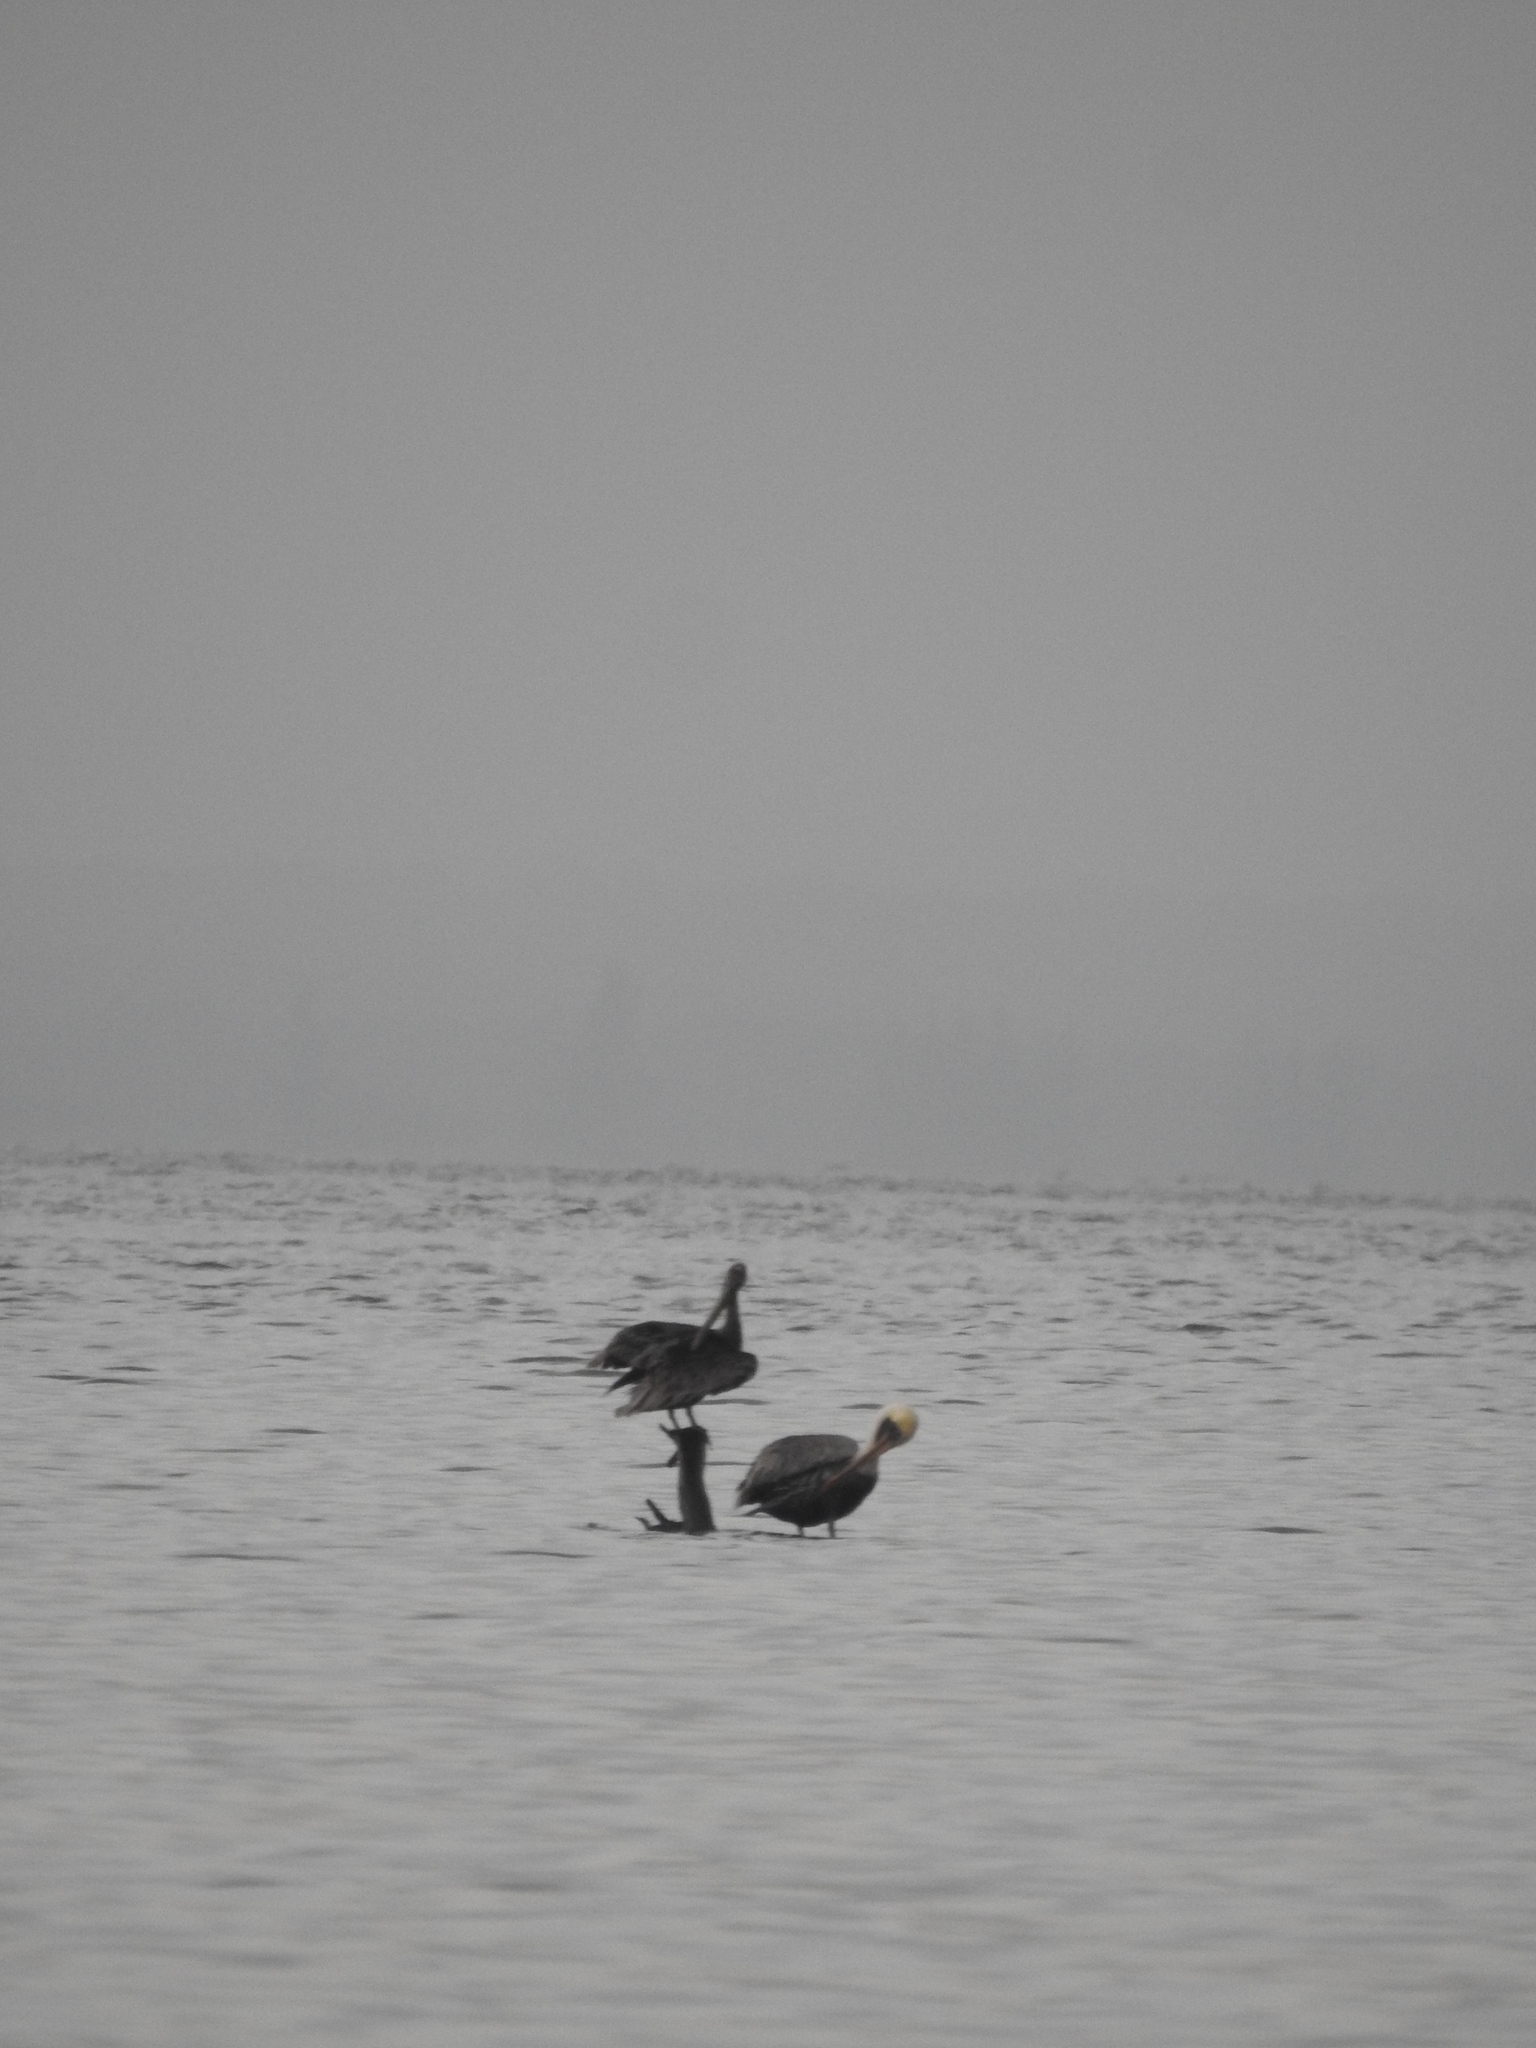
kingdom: Animalia
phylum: Chordata
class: Aves
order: Pelecaniformes
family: Pelecanidae
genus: Pelecanus
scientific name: Pelecanus occidentalis
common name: Brown pelican
